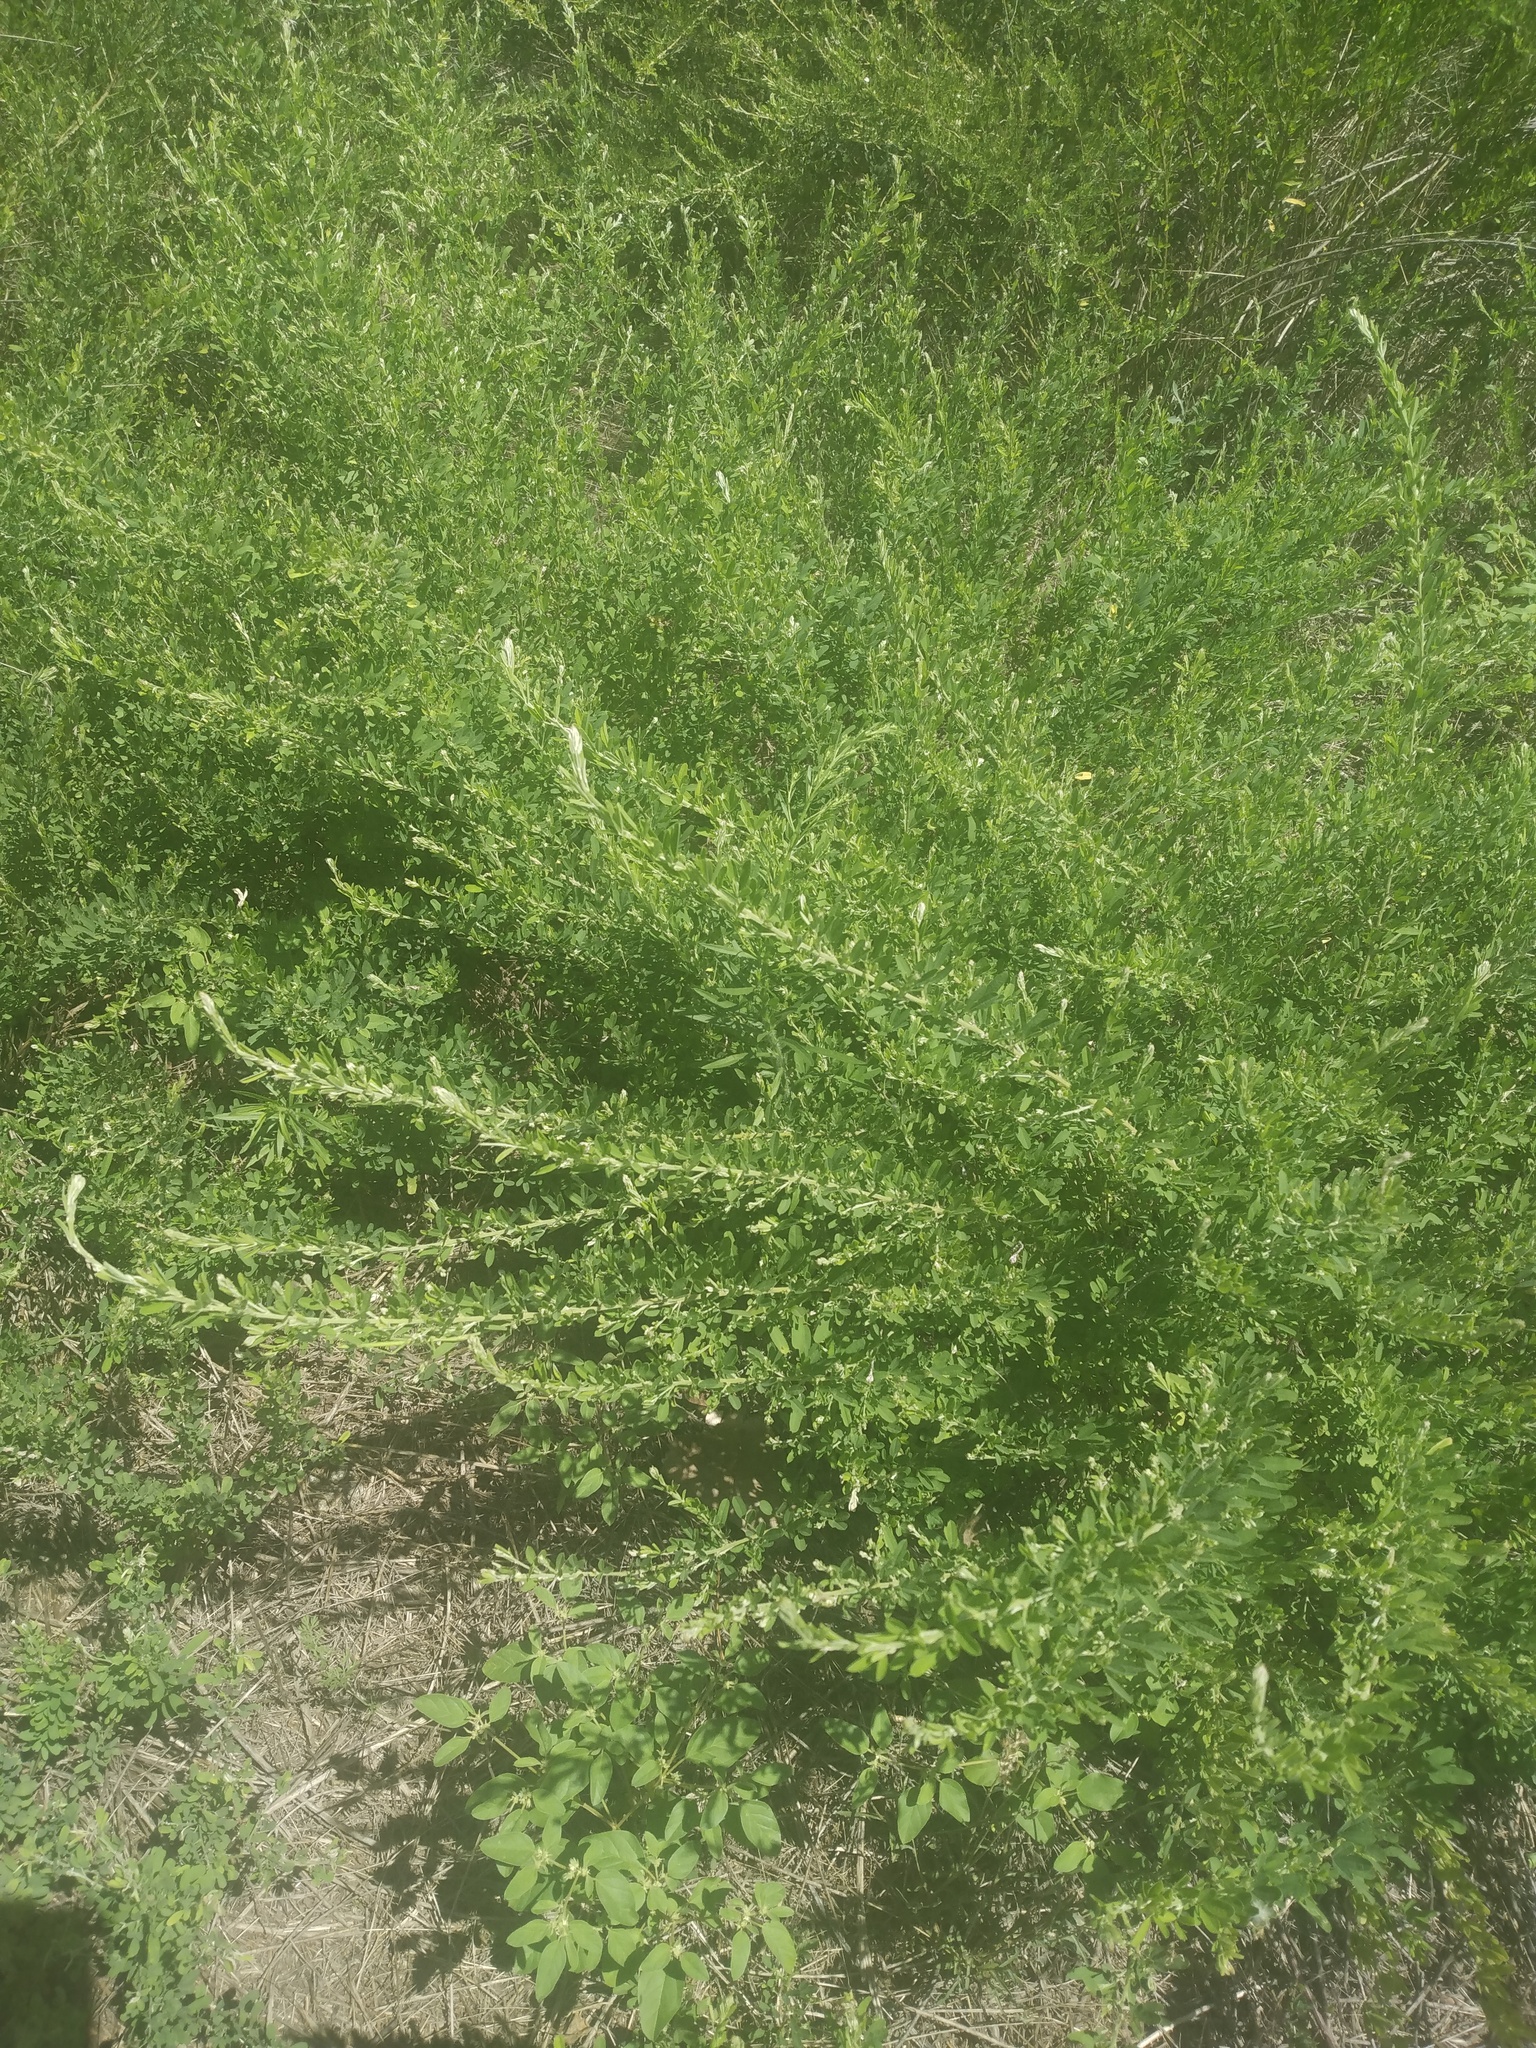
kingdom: Plantae
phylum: Tracheophyta
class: Magnoliopsida
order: Fabales
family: Fabaceae
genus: Lespedeza
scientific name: Lespedeza cuneata
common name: Chinese bush-clover
